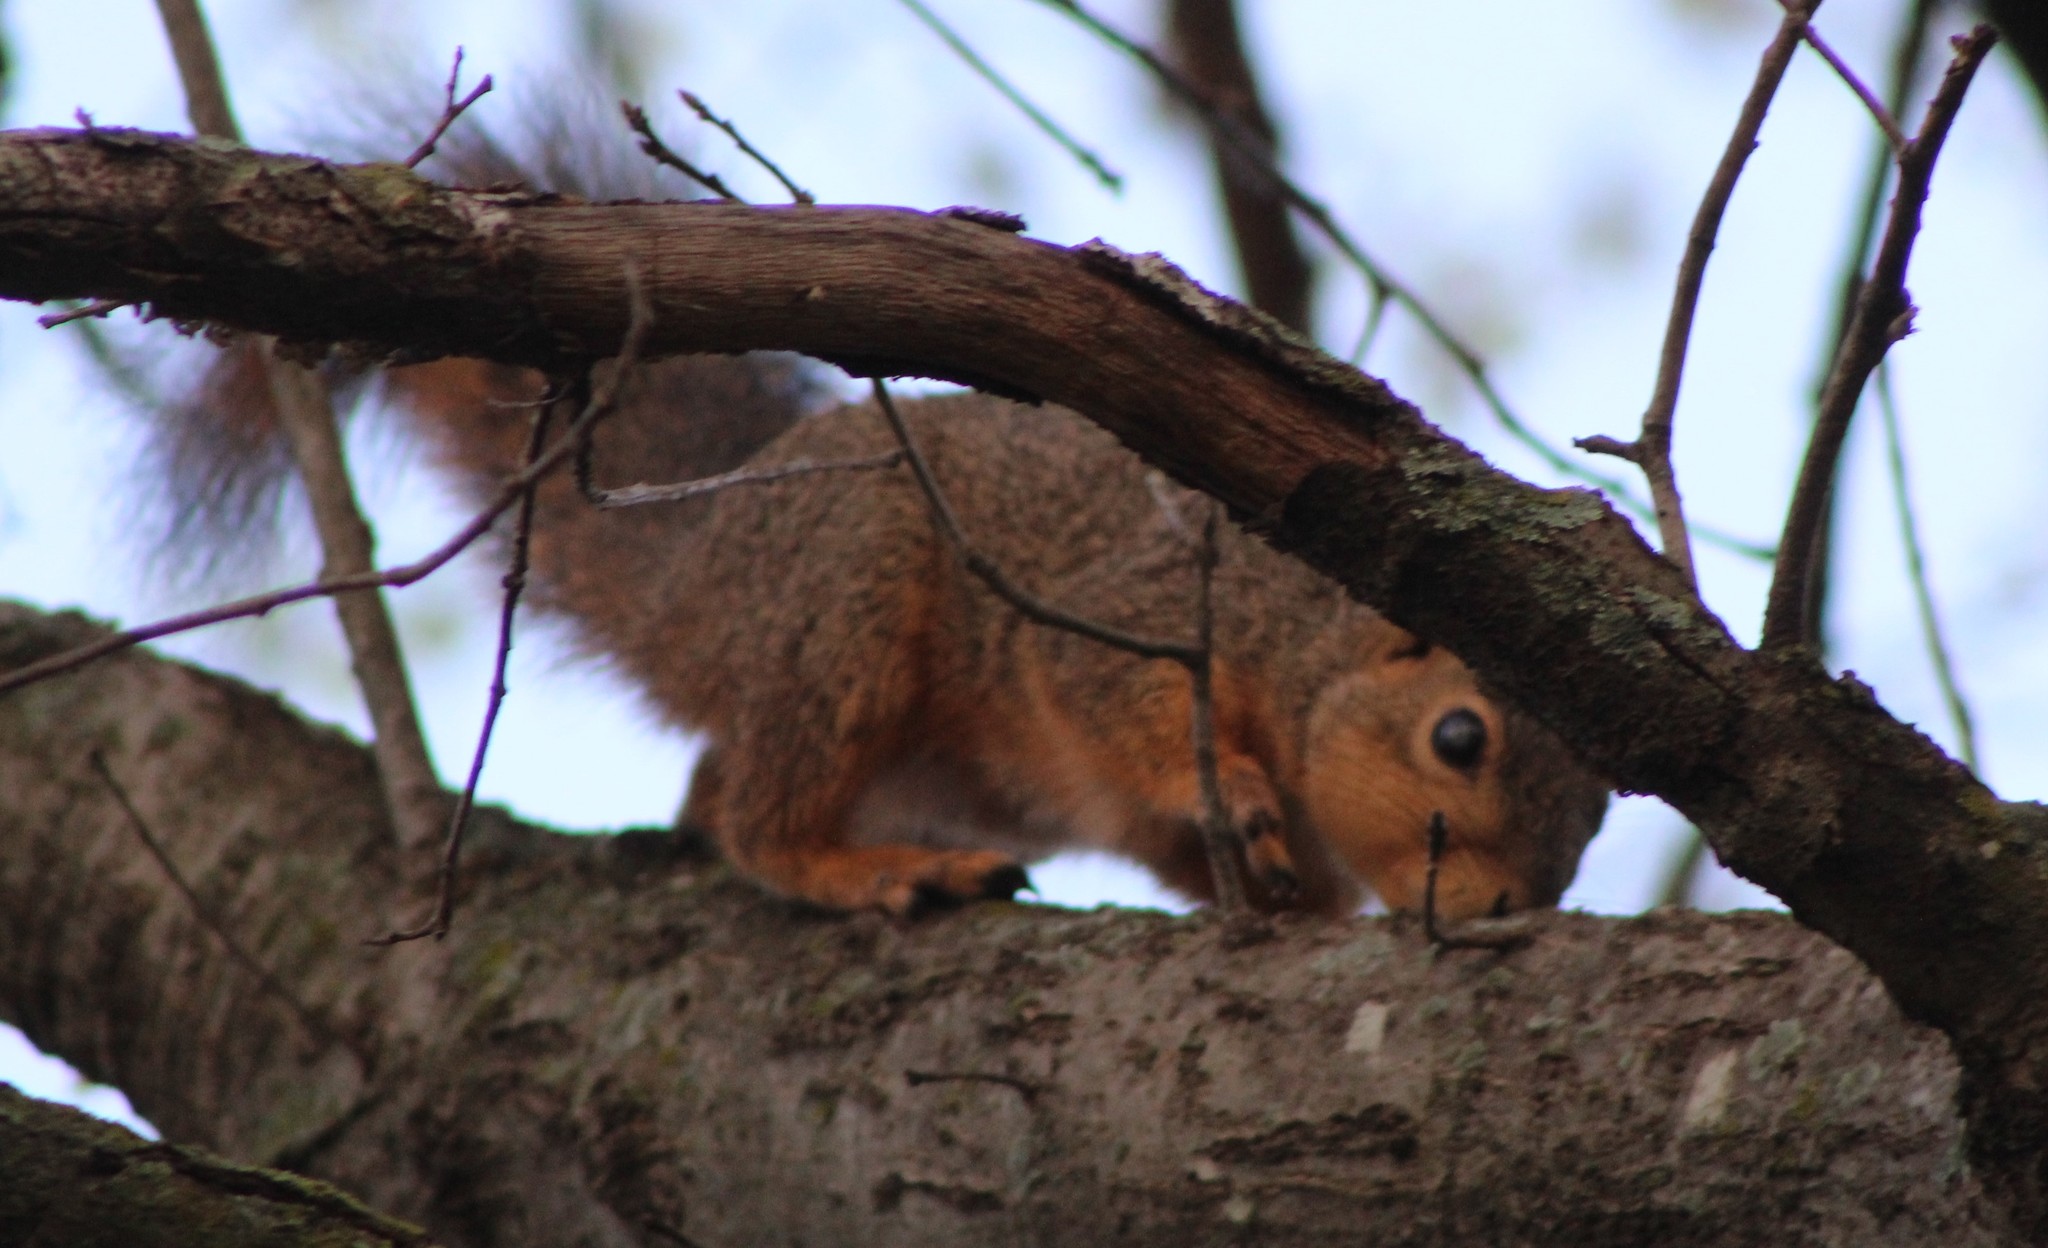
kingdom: Animalia
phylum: Chordata
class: Mammalia
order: Rodentia
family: Sciuridae
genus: Sciurus
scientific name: Sciurus niger
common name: Fox squirrel
